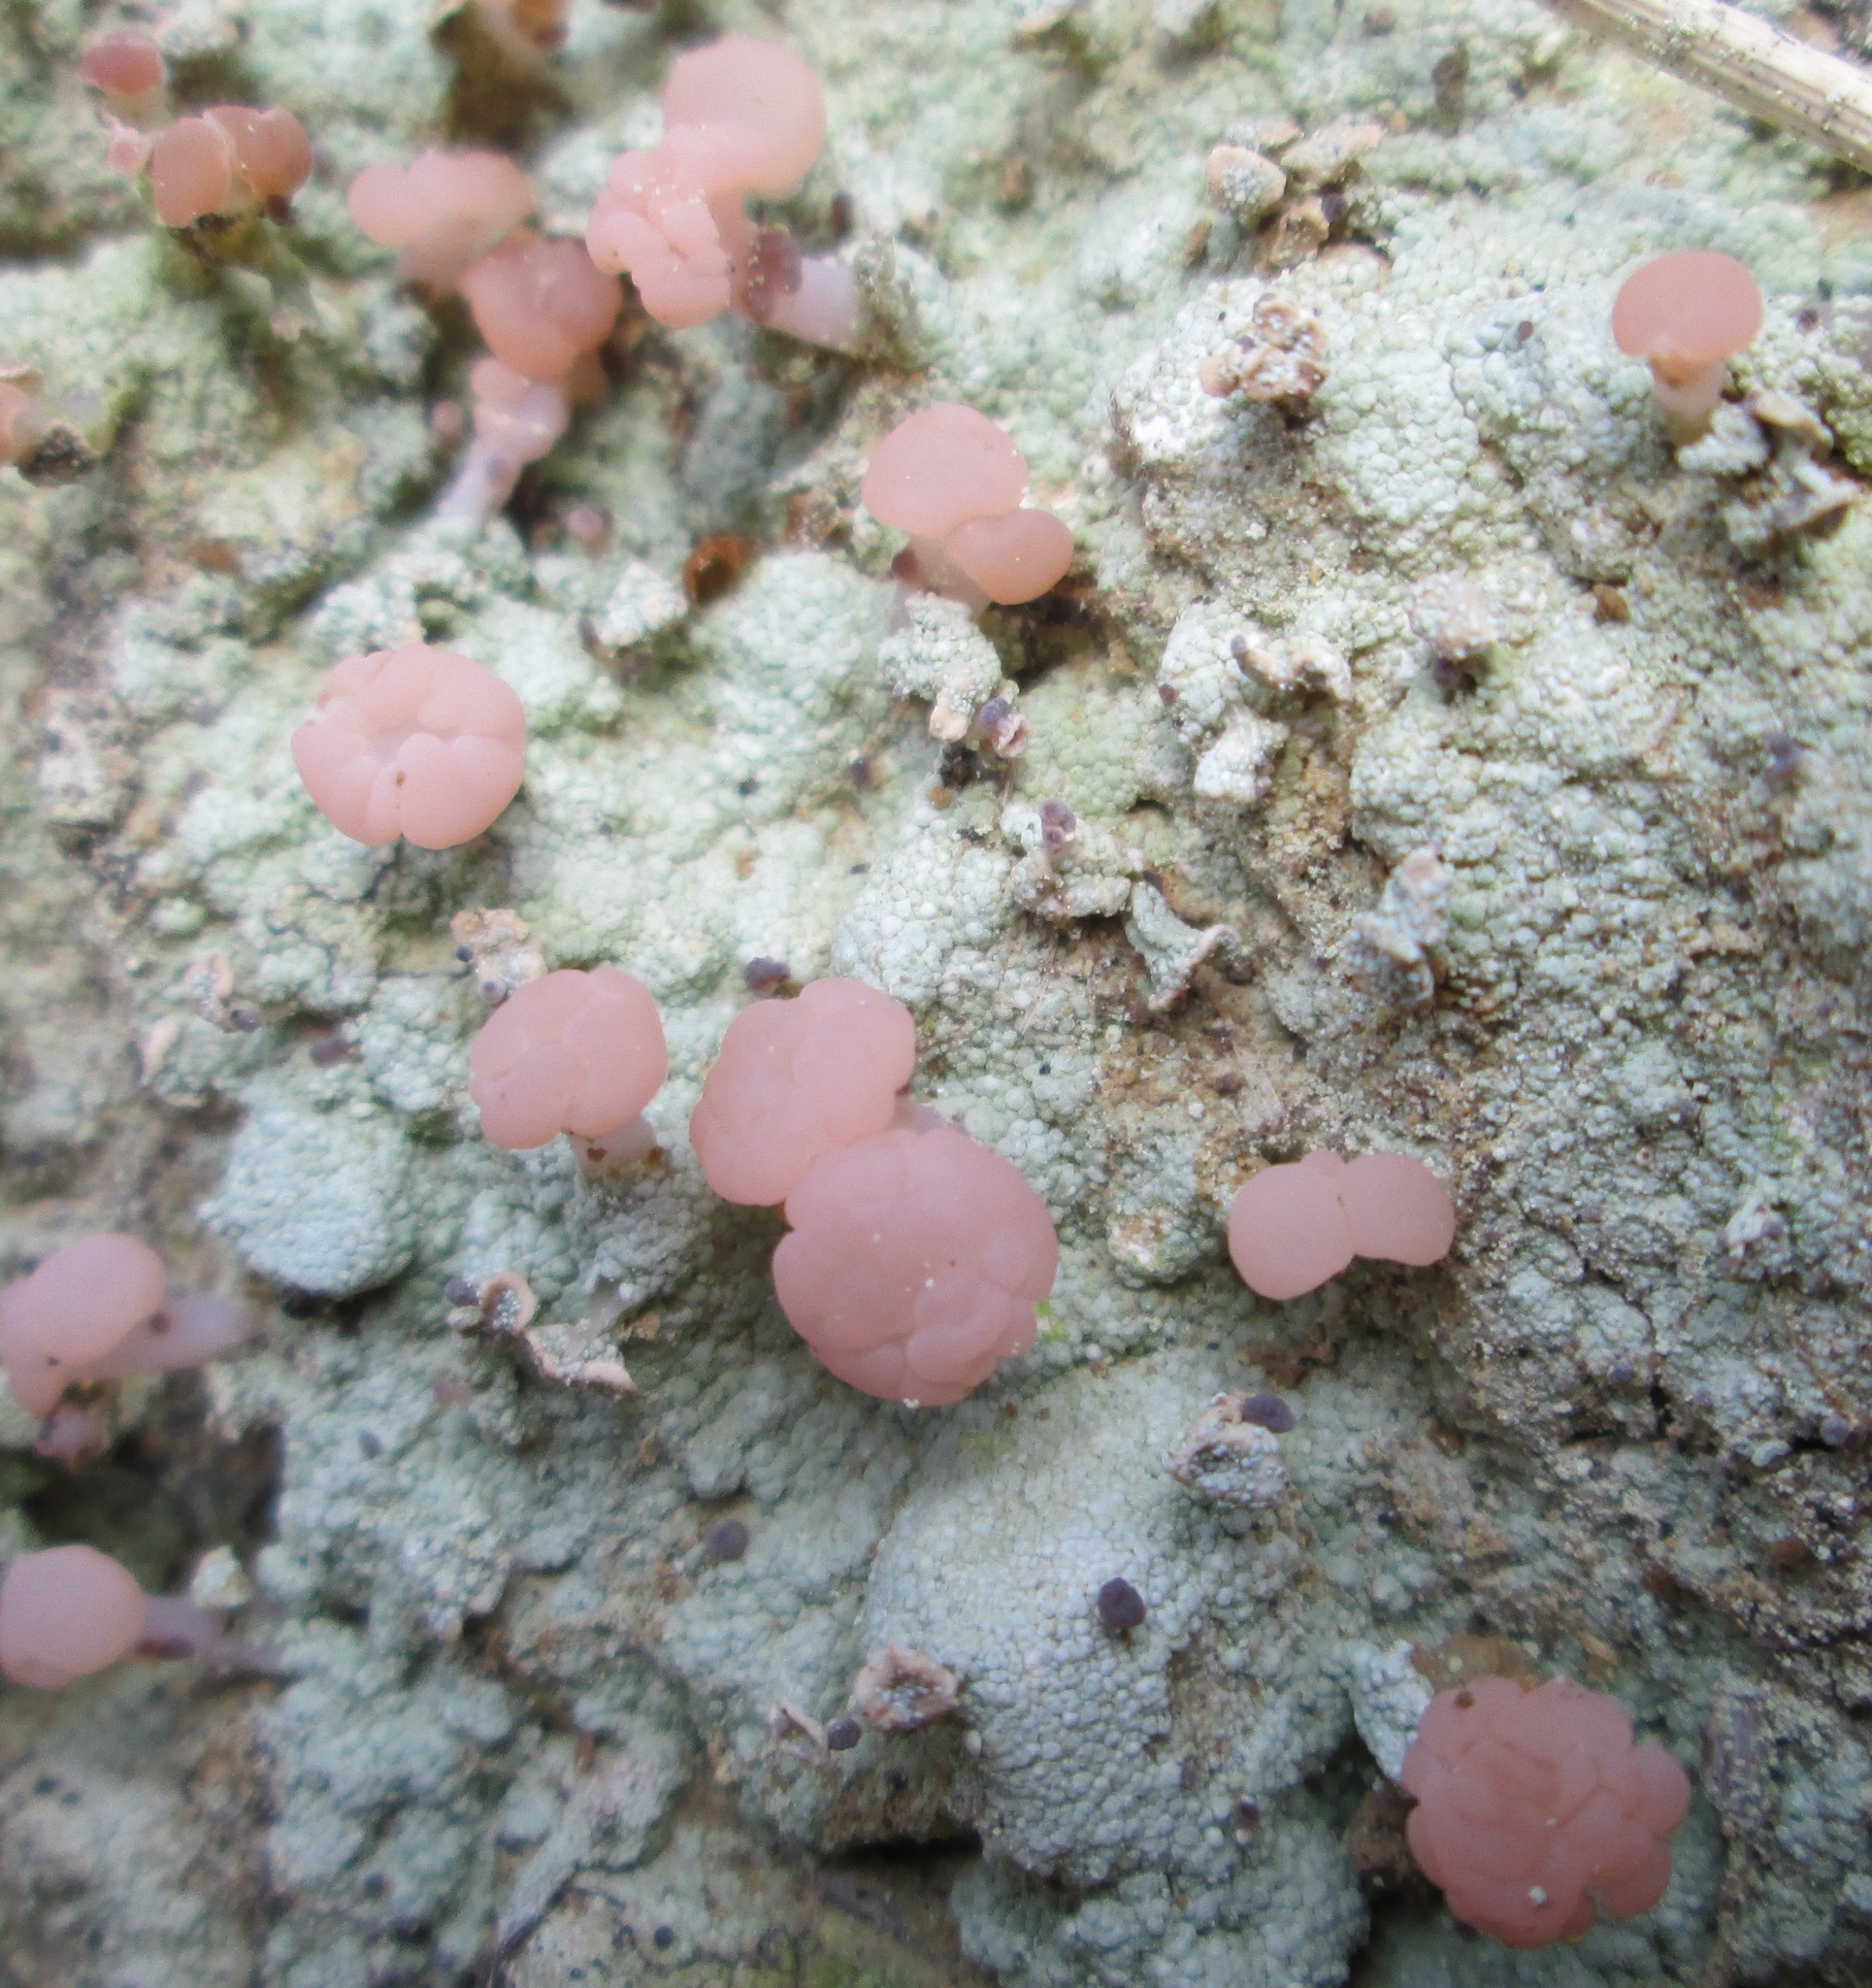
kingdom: Fungi
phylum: Ascomycota
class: Lecanoromycetes
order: Baeomycetales
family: Baeomycetaceae
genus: Baeomyces
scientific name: Baeomyces heteromorphus
